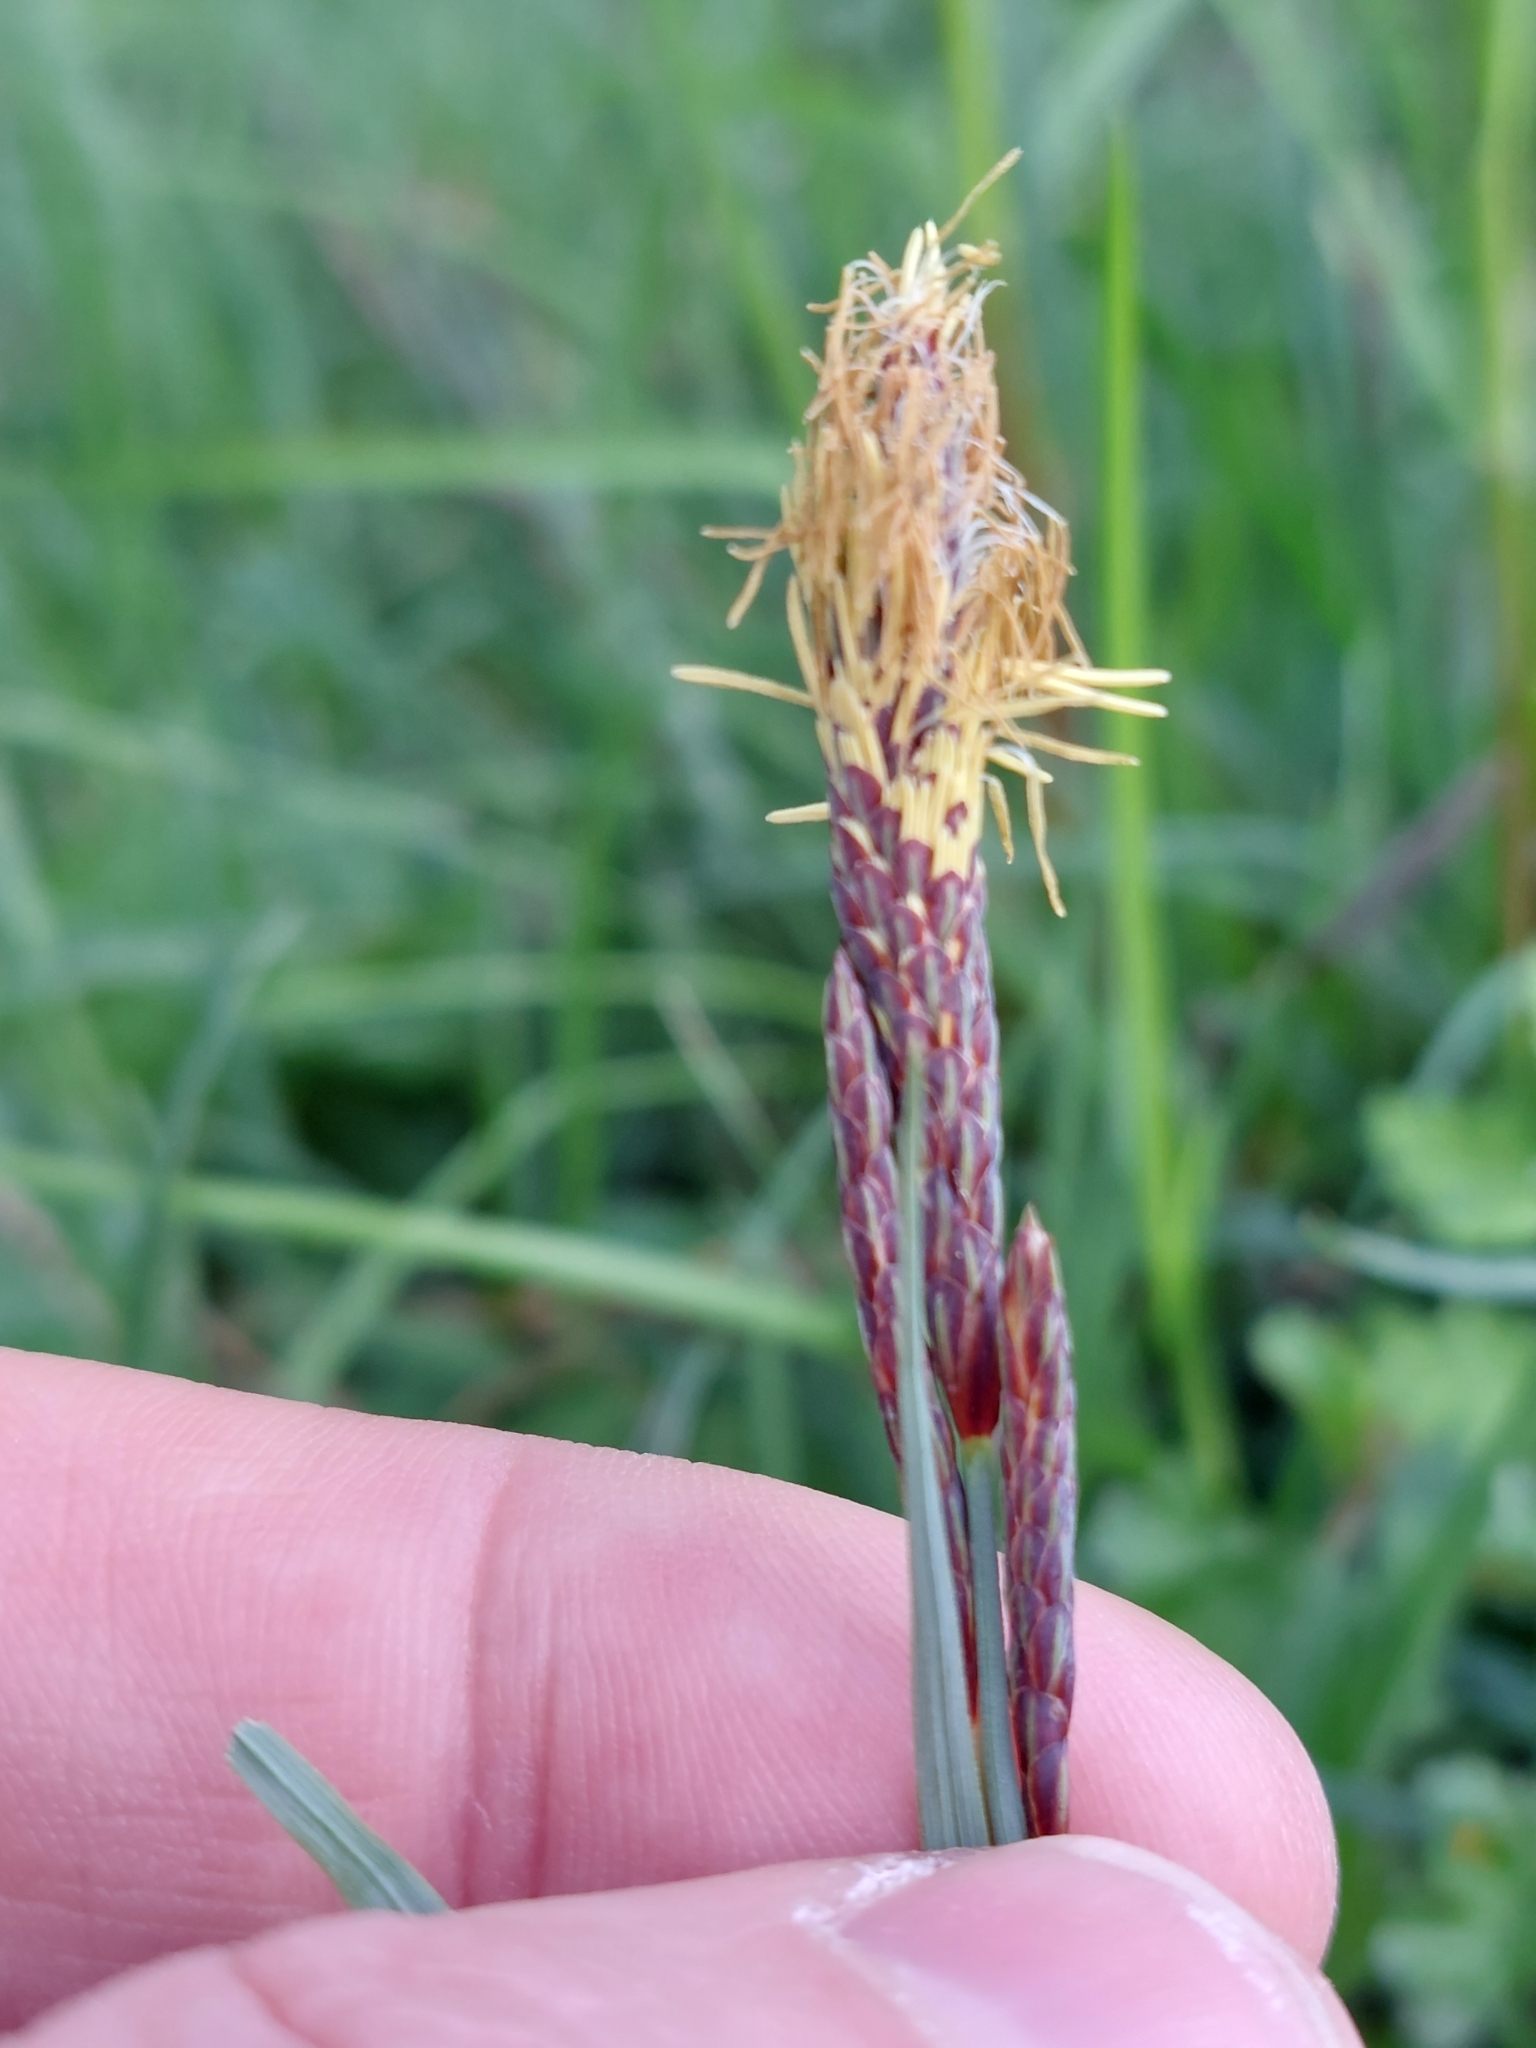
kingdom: Plantae
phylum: Tracheophyta
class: Liliopsida
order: Poales
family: Cyperaceae
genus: Carex
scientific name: Carex flacca
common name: Glaucous sedge
